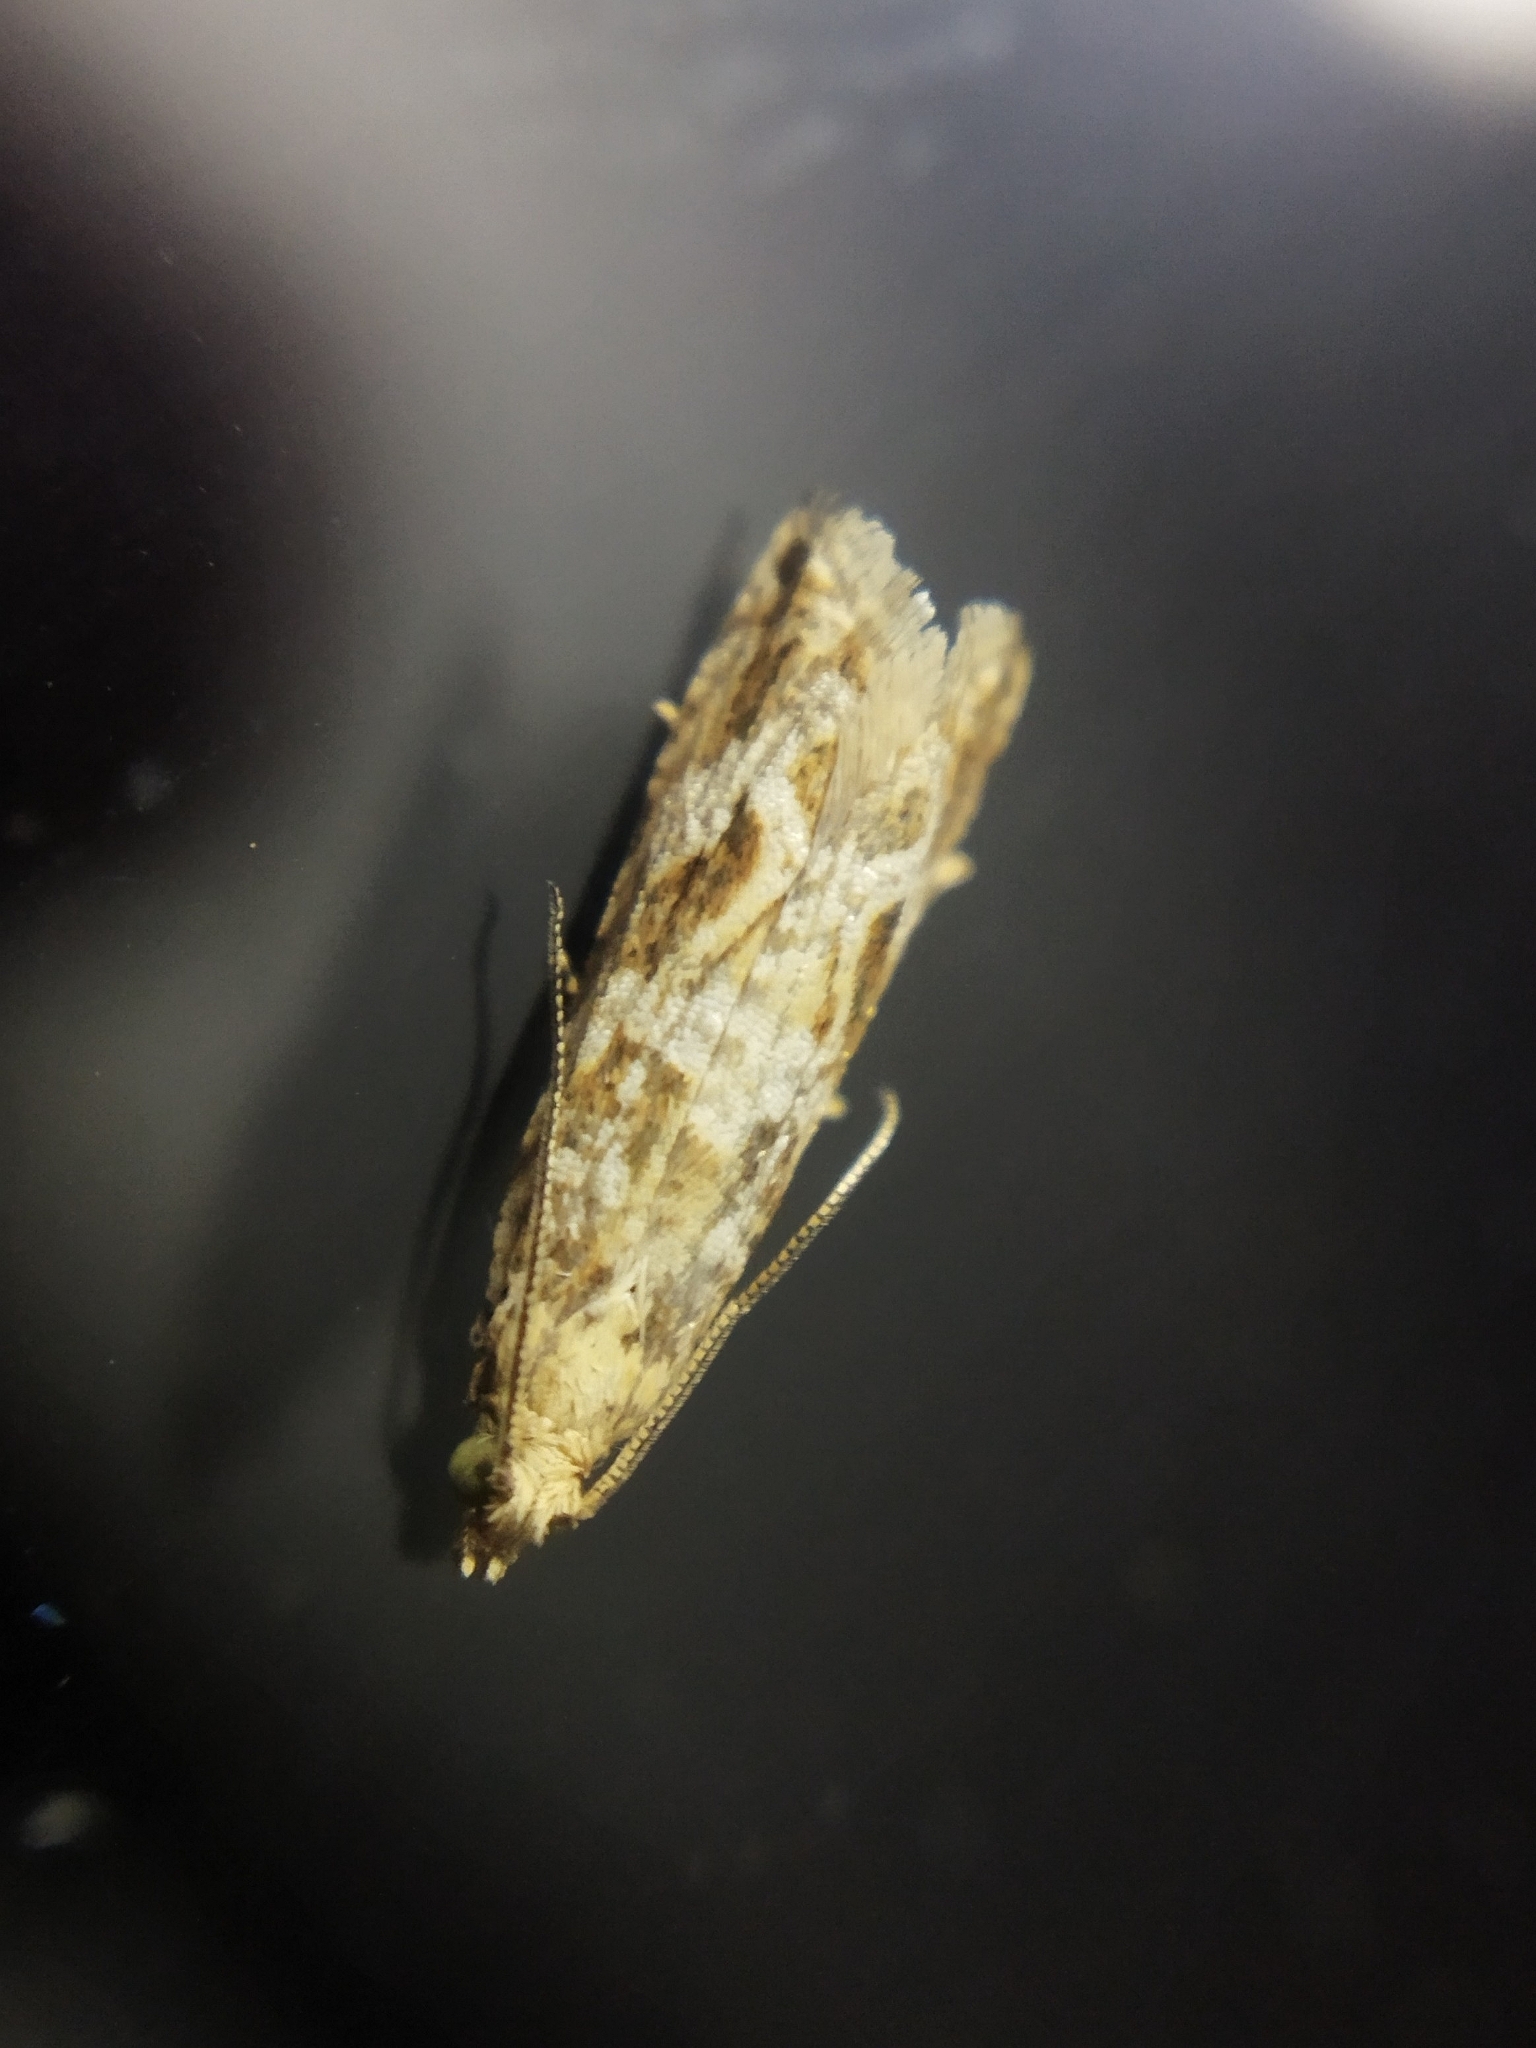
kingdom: Animalia
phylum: Arthropoda
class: Insecta
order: Lepidoptera
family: Tortricidae
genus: Bactra
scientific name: Bactra furfurana
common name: Mottled marble
